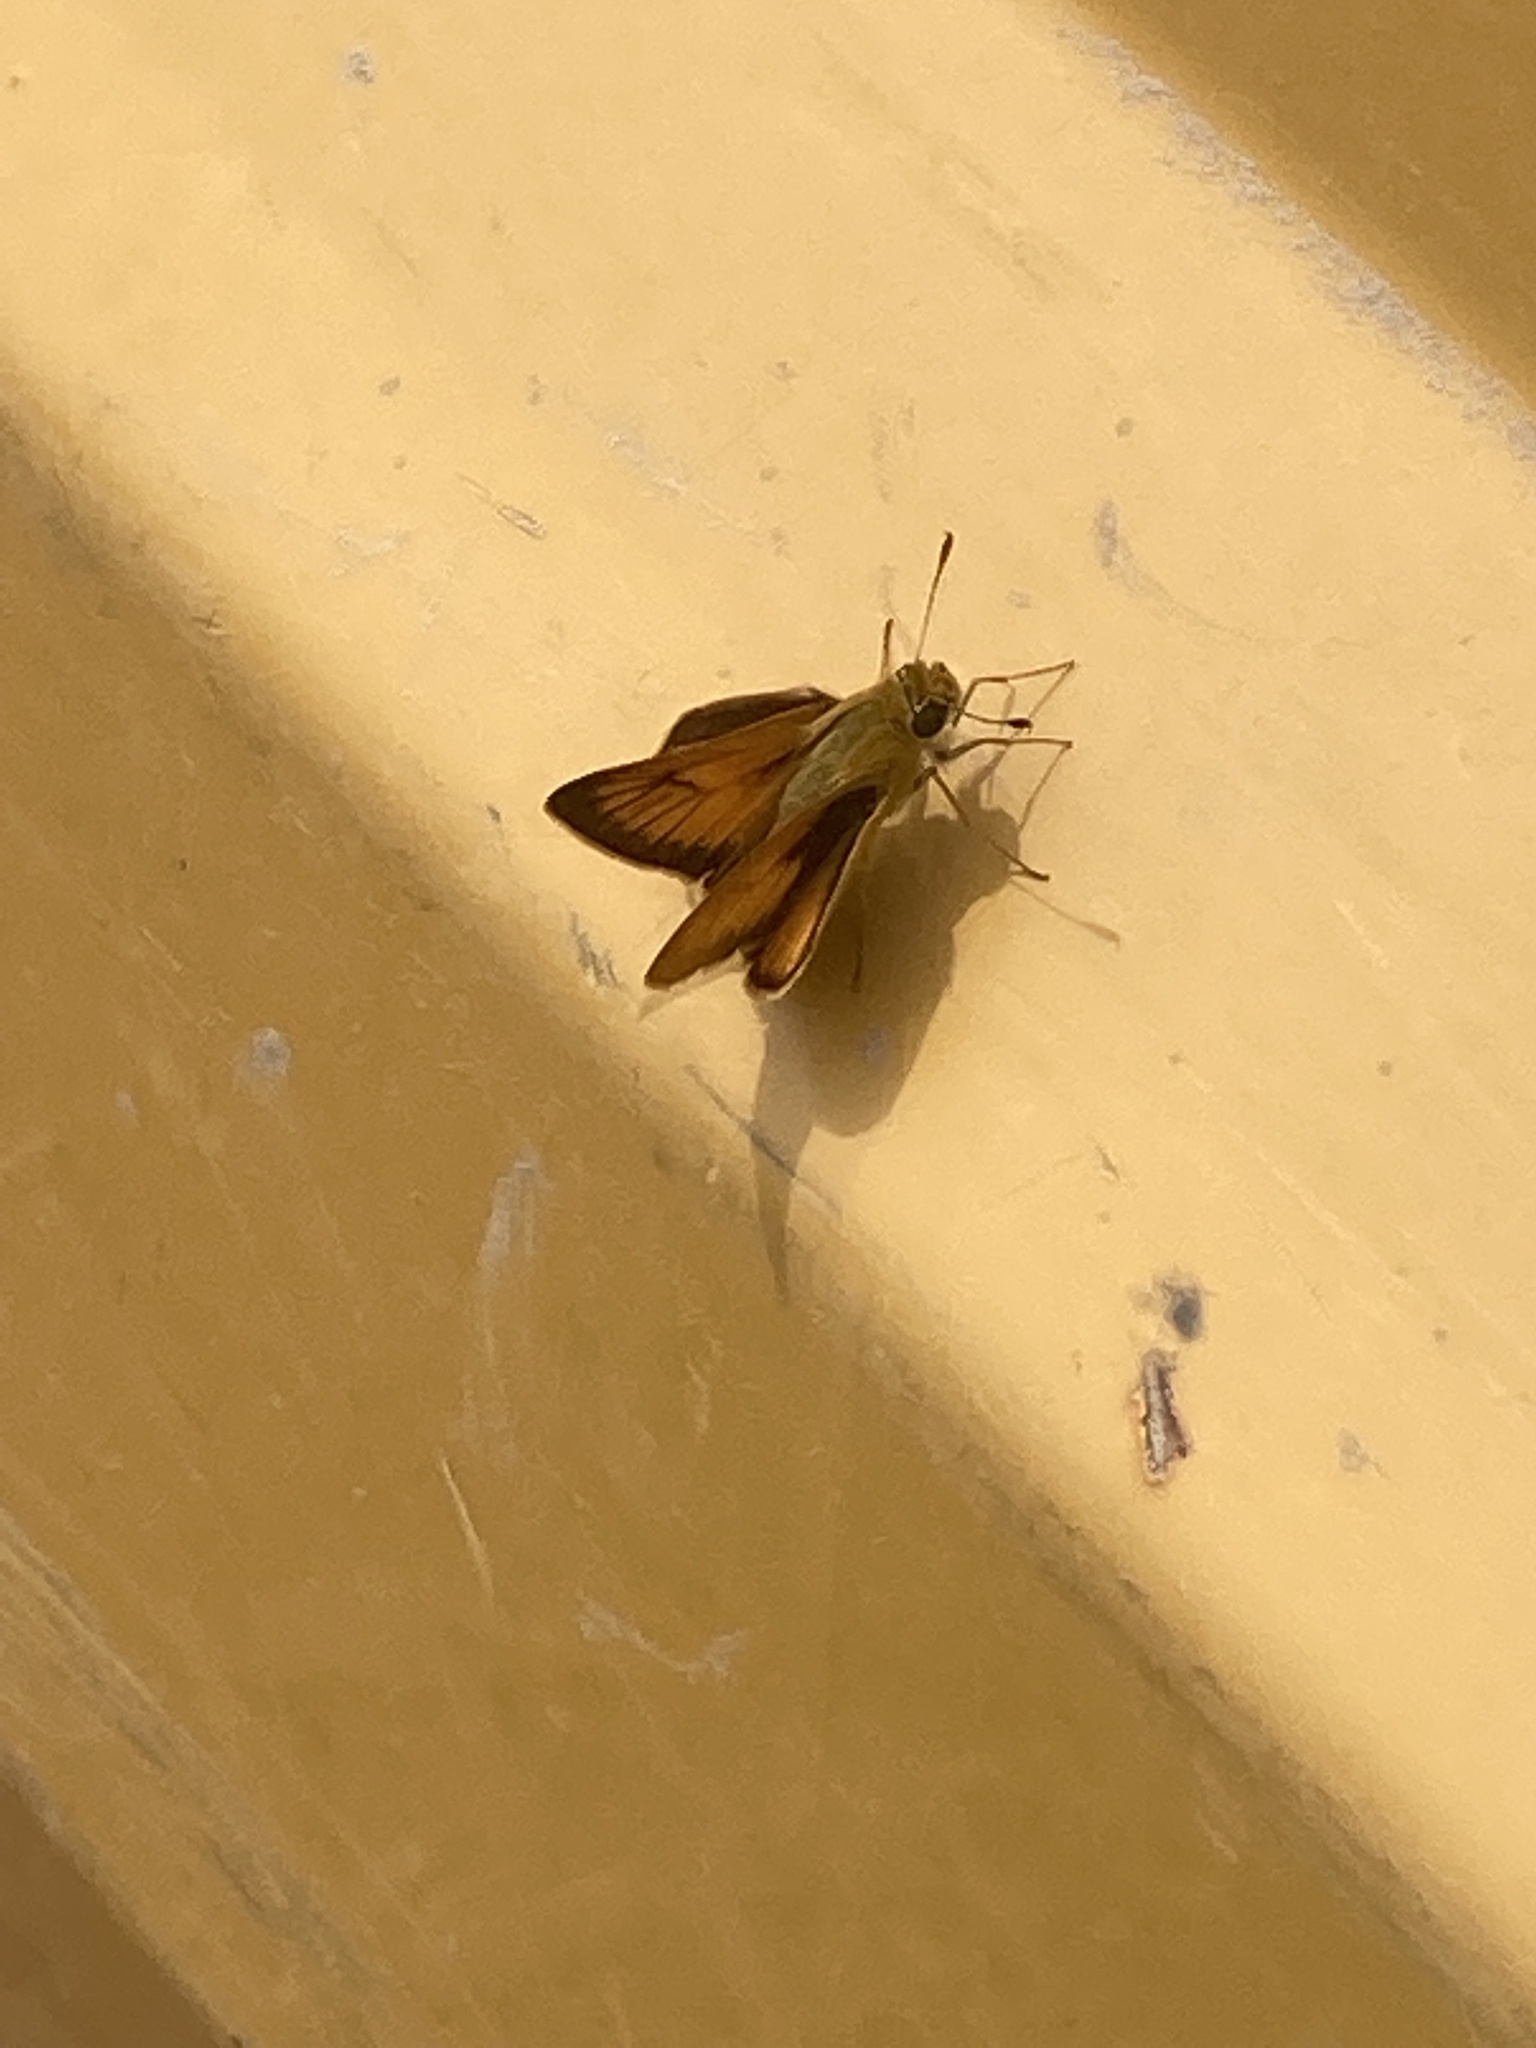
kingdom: Animalia
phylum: Arthropoda
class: Insecta
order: Lepidoptera
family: Hesperiidae
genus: Atrytone
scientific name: Atrytone delaware
